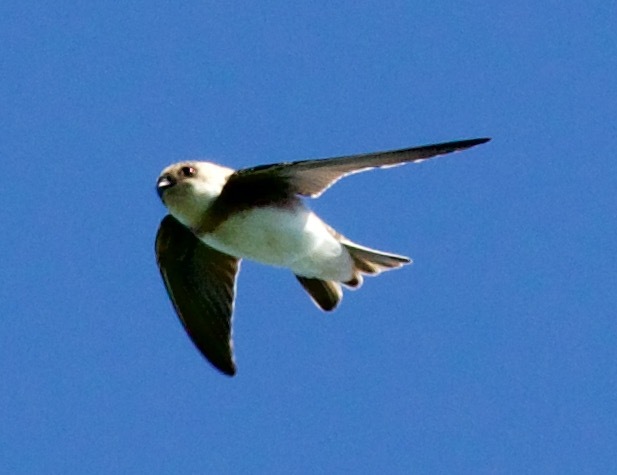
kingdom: Animalia
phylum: Chordata
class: Aves
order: Passeriformes
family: Hirundinidae
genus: Riparia
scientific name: Riparia riparia
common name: Sand martin
